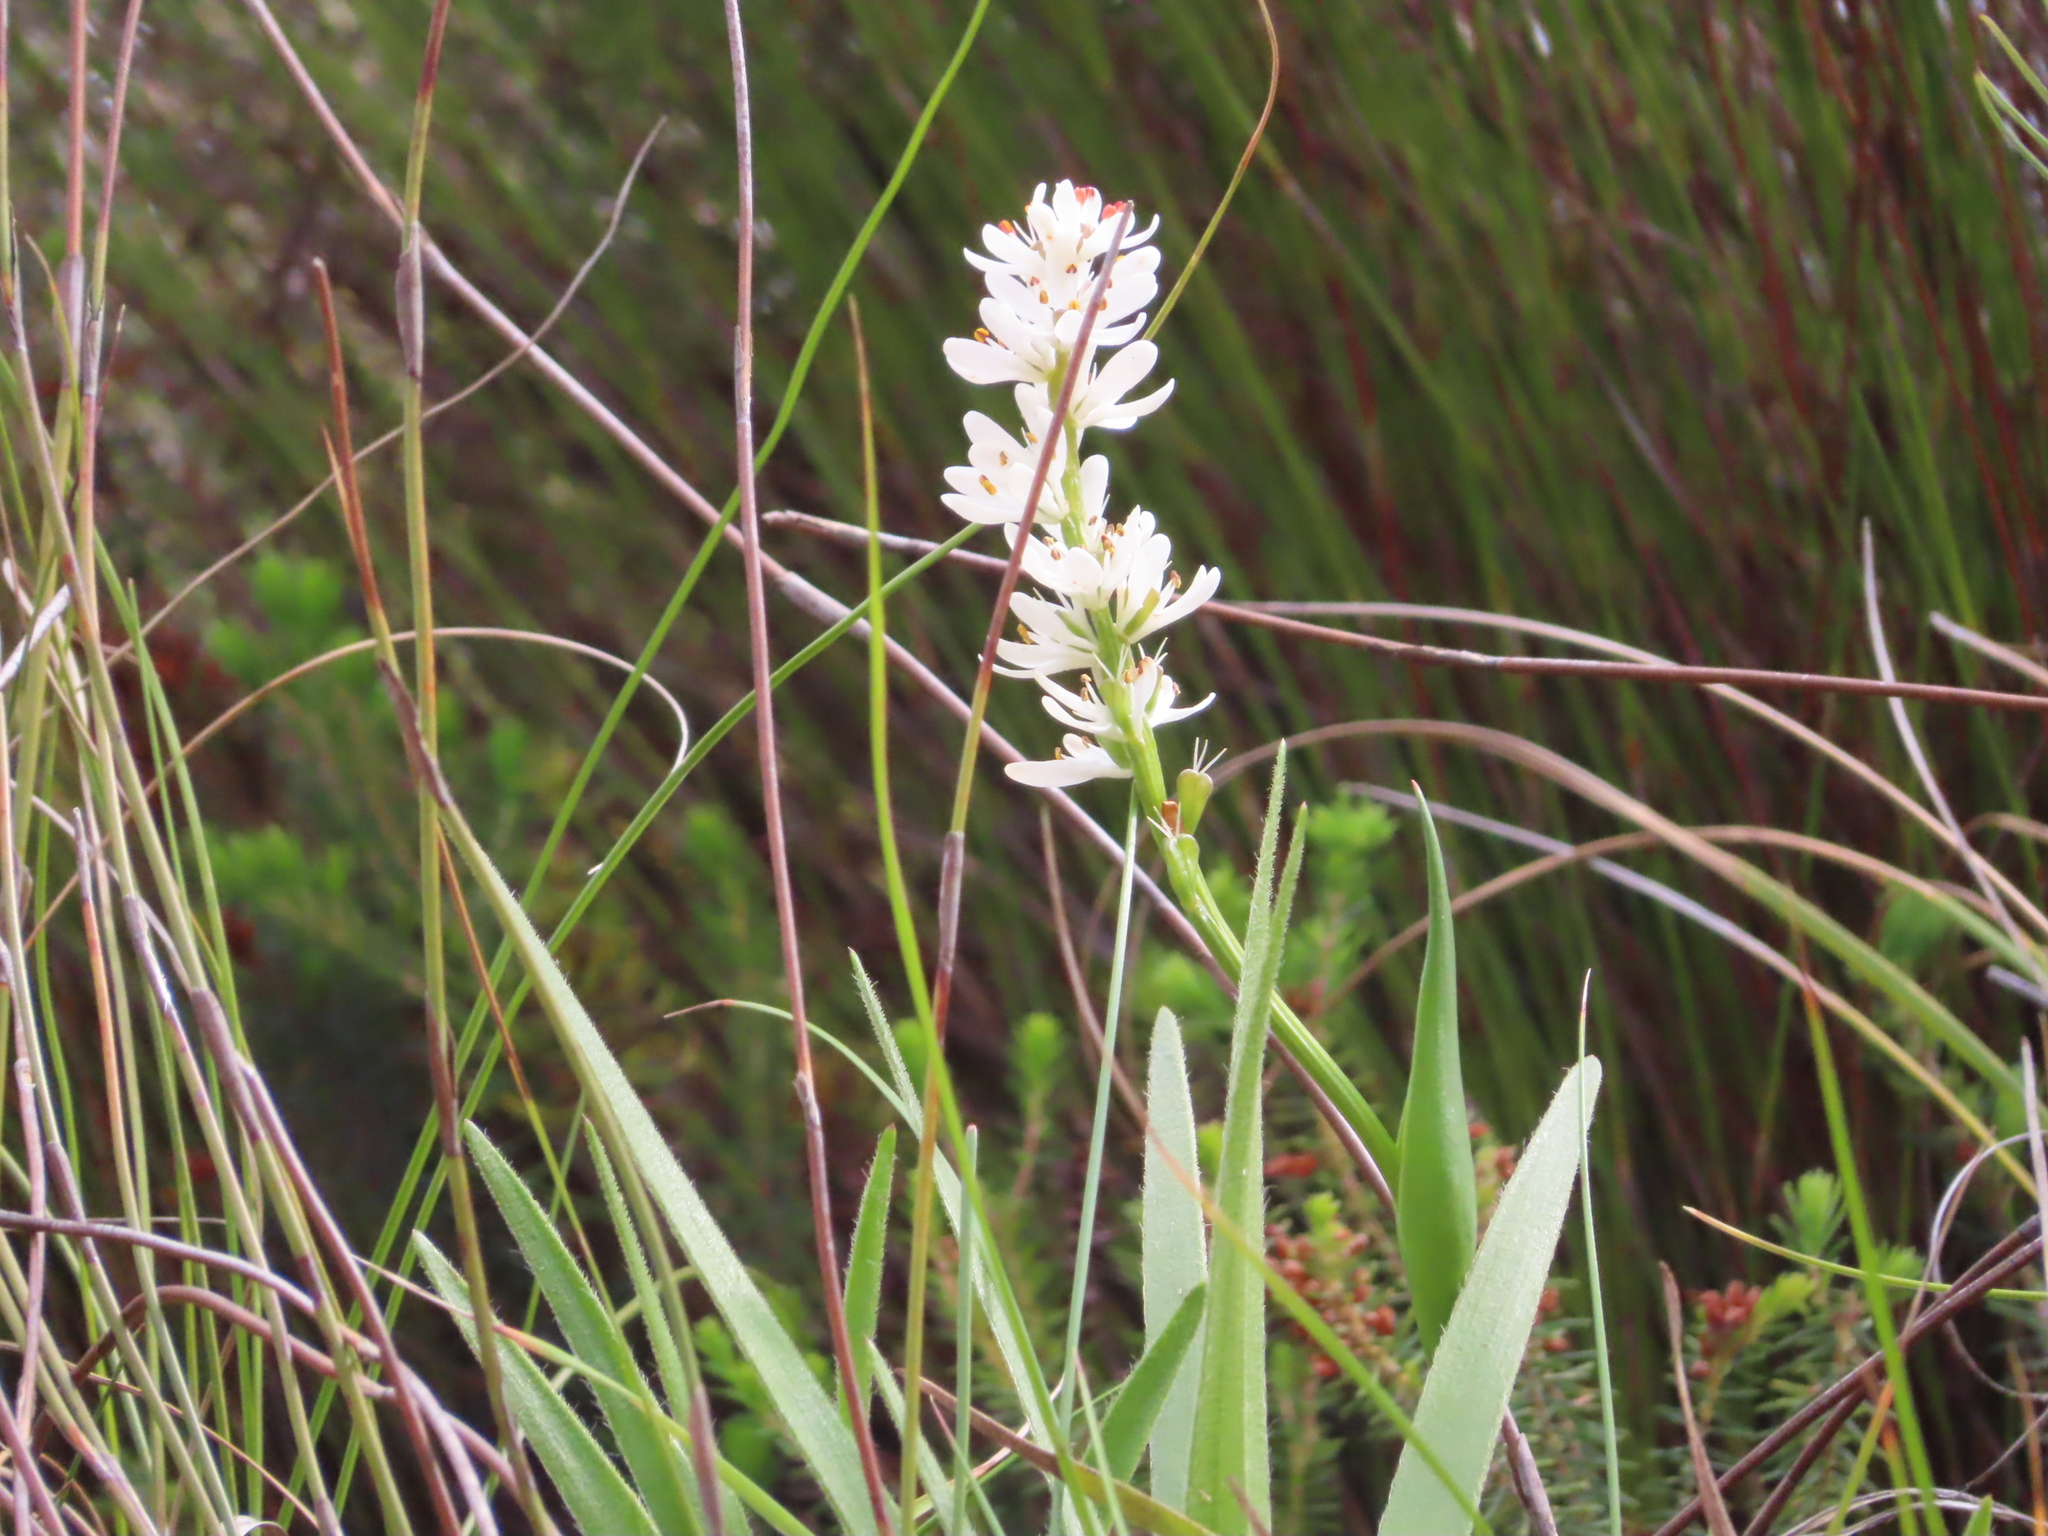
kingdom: Plantae
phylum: Tracheophyta
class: Liliopsida
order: Liliales
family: Colchicaceae
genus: Wurmbea
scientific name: Wurmbea punctata
